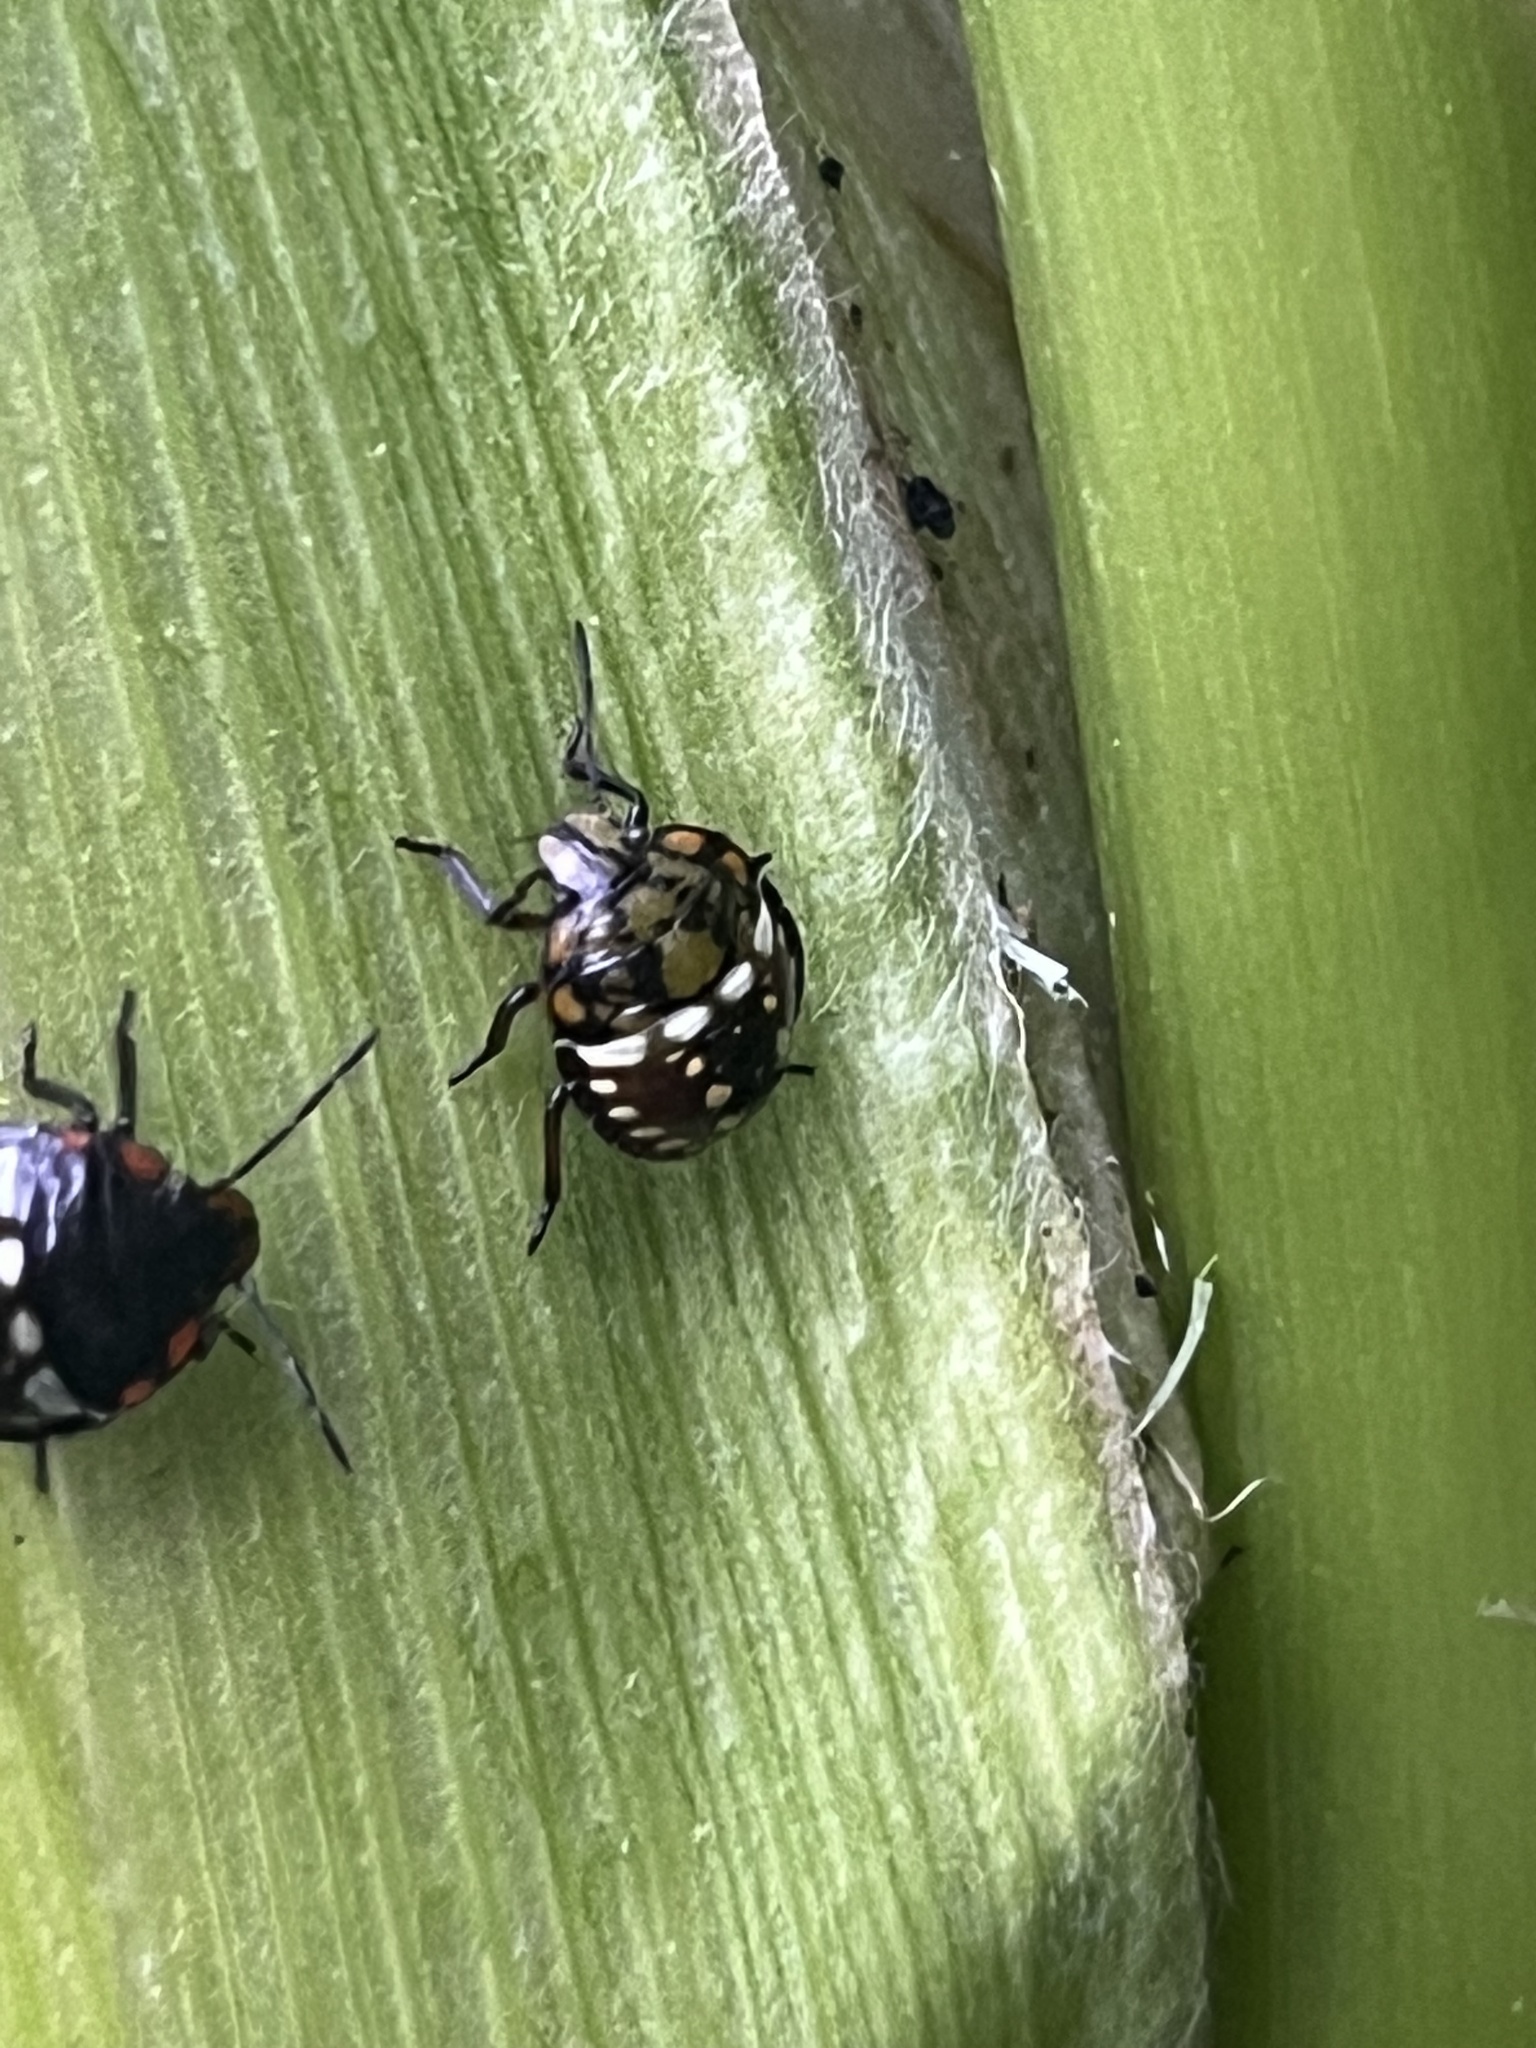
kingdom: Animalia
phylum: Arthropoda
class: Insecta
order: Hemiptera
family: Pentatomidae
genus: Nezara
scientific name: Nezara viridula
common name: Southern green stink bug
